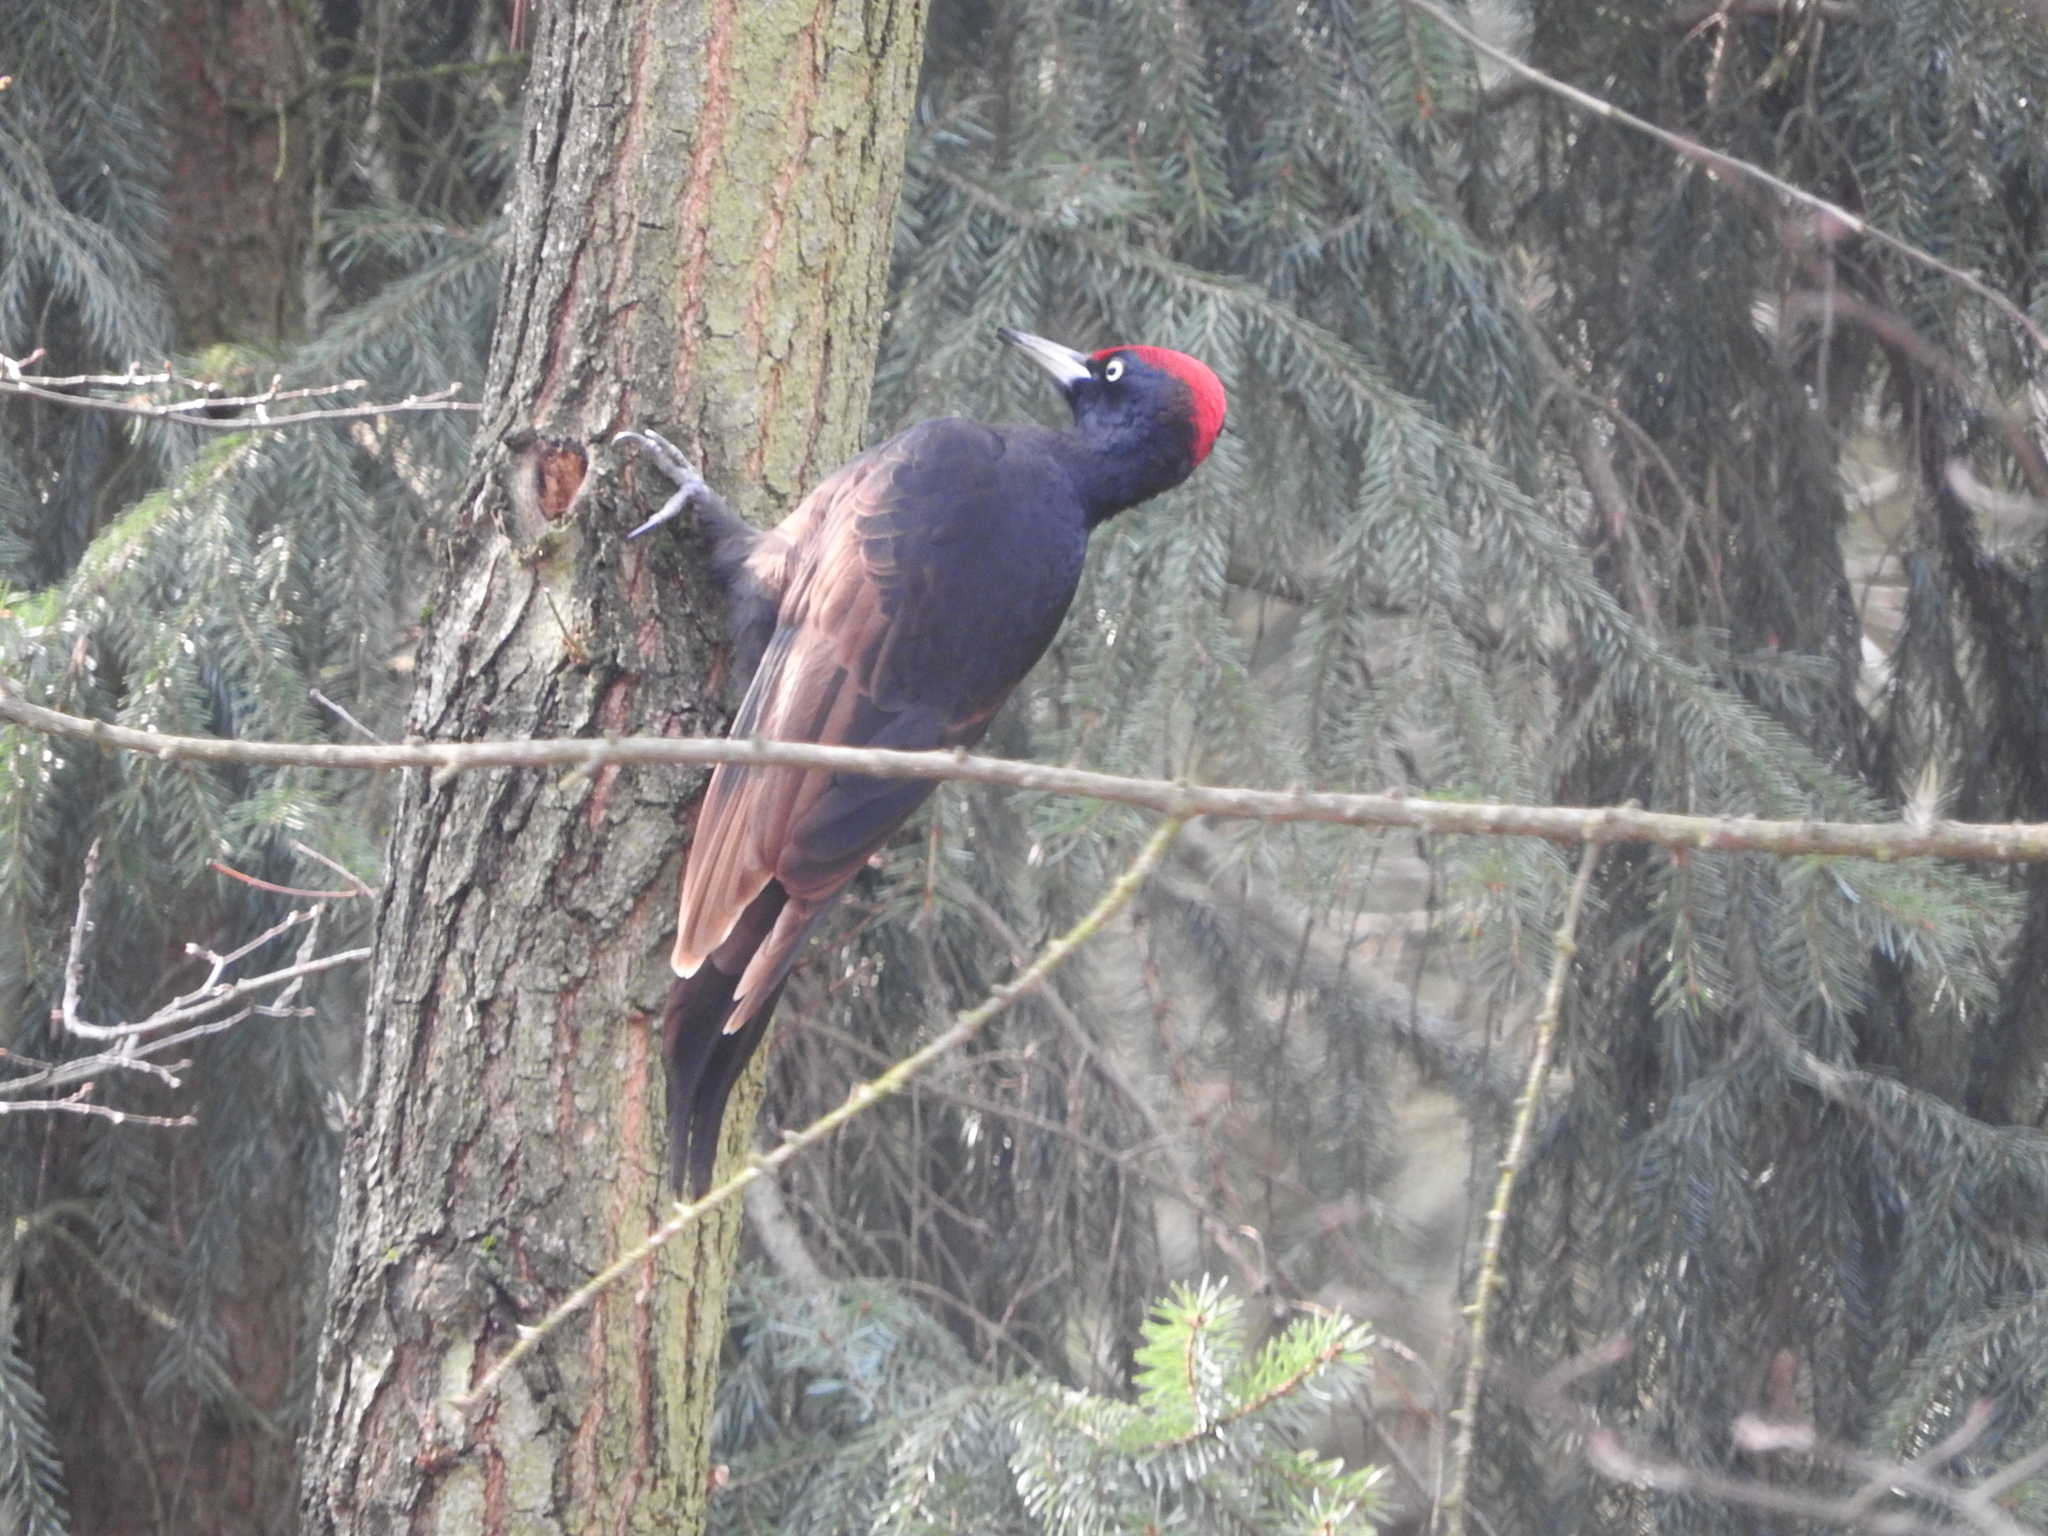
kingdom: Animalia
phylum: Chordata
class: Aves
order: Piciformes
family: Picidae
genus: Dryocopus
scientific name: Dryocopus martius
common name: Black woodpecker
